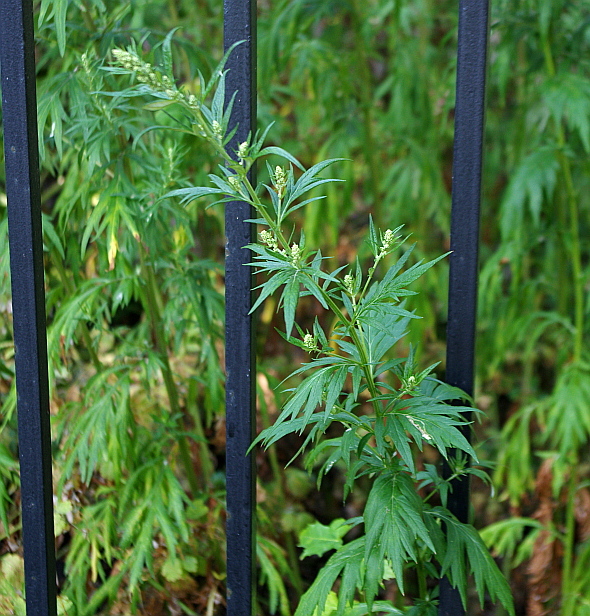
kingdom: Plantae
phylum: Tracheophyta
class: Magnoliopsida
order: Asterales
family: Asteraceae
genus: Artemisia
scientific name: Artemisia vulgaris
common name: Mugwort
